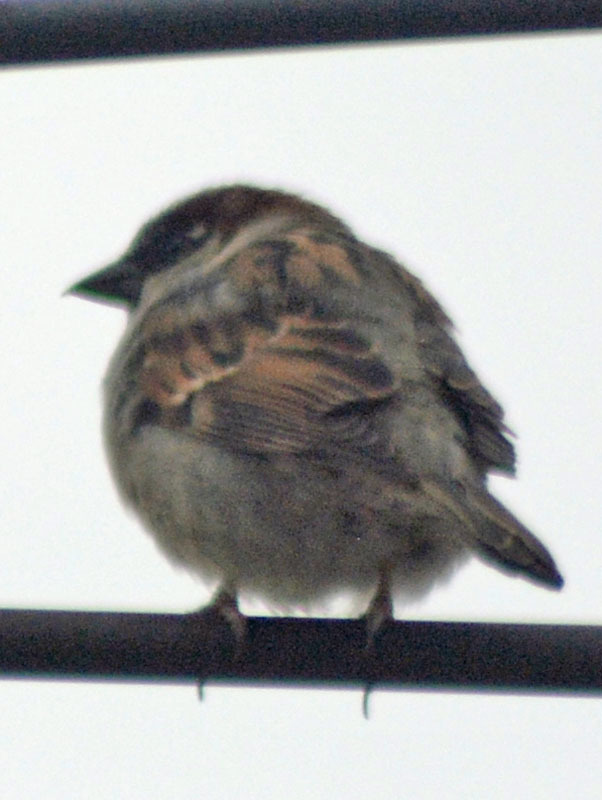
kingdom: Animalia
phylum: Chordata
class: Aves
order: Passeriformes
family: Passeridae
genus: Passer
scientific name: Passer domesticus
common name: House sparrow
